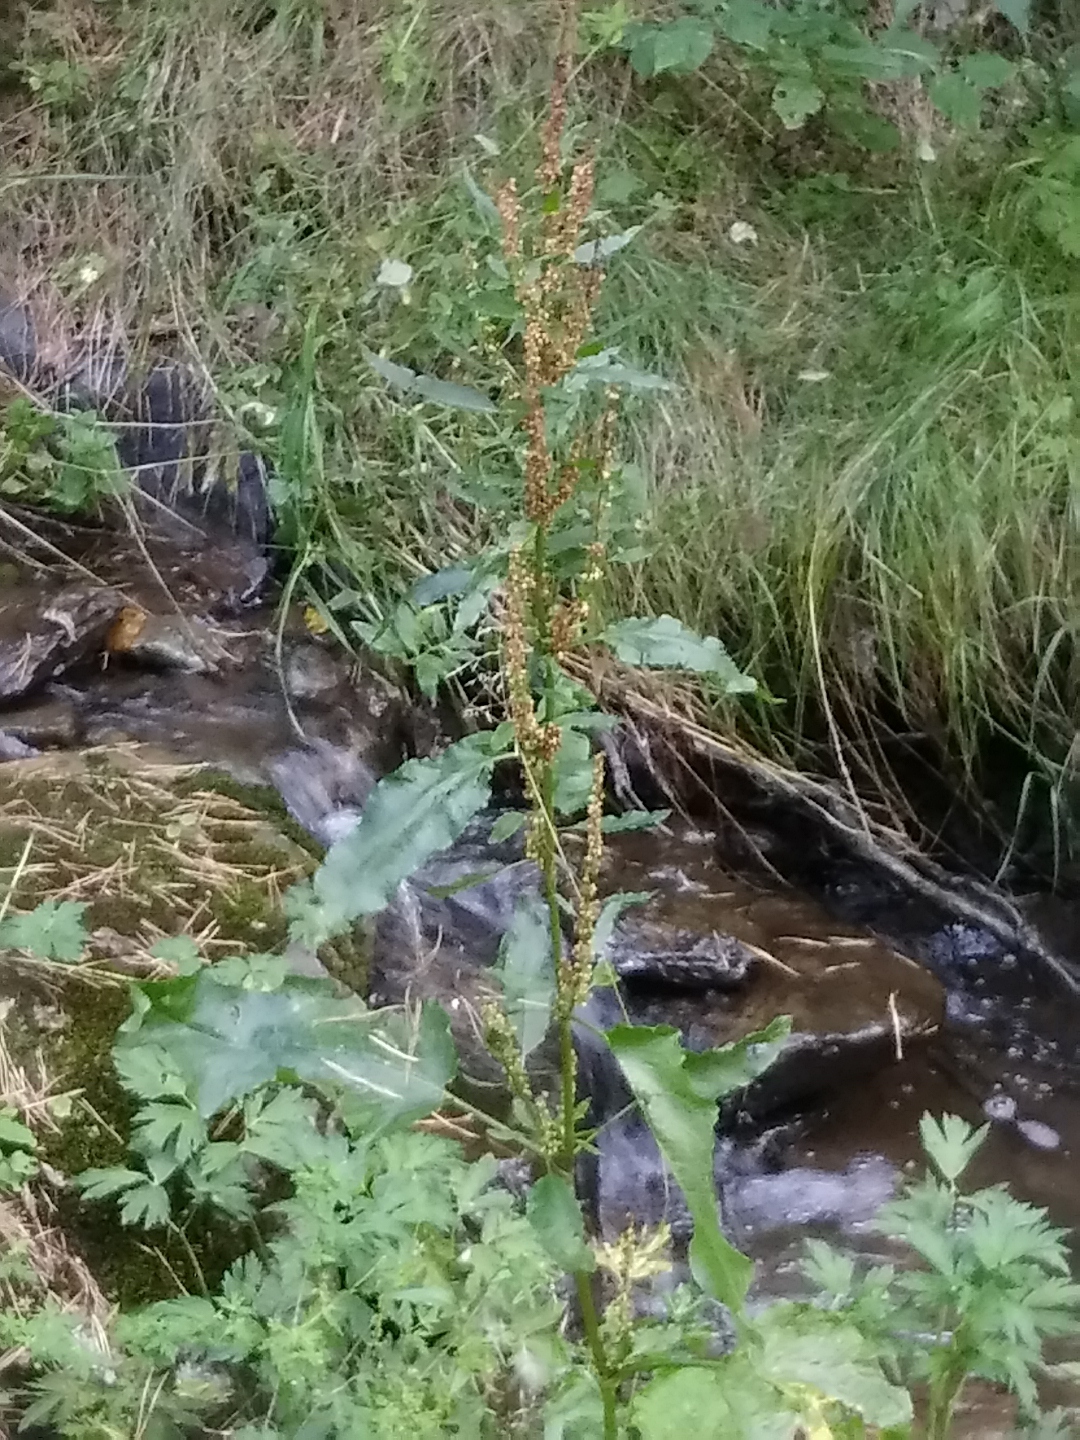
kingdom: Plantae
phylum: Tracheophyta
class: Magnoliopsida
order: Caryophyllales
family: Polygonaceae
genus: Rumex
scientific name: Rumex obtusifolius
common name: Bitter dock
